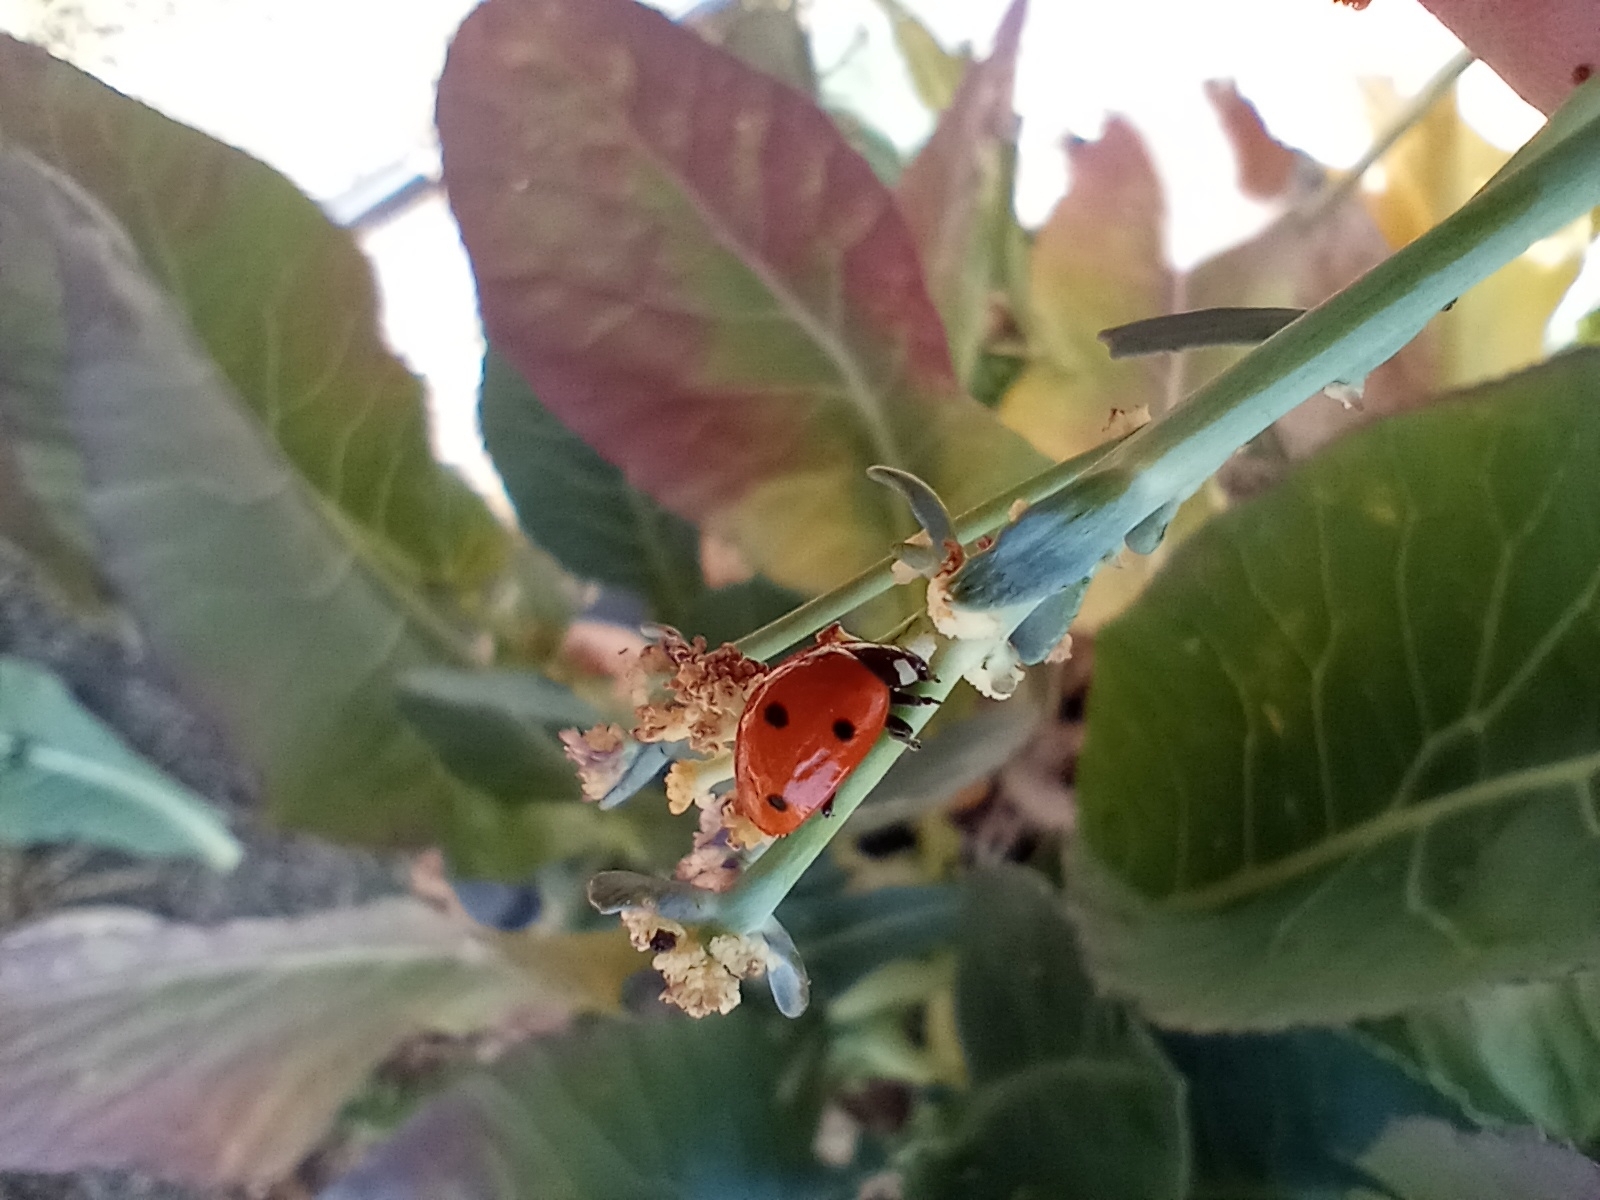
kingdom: Animalia
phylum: Arthropoda
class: Insecta
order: Coleoptera
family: Coccinellidae
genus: Coccinella
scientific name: Coccinella septempunctata
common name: Sevenspotted lady beetle
